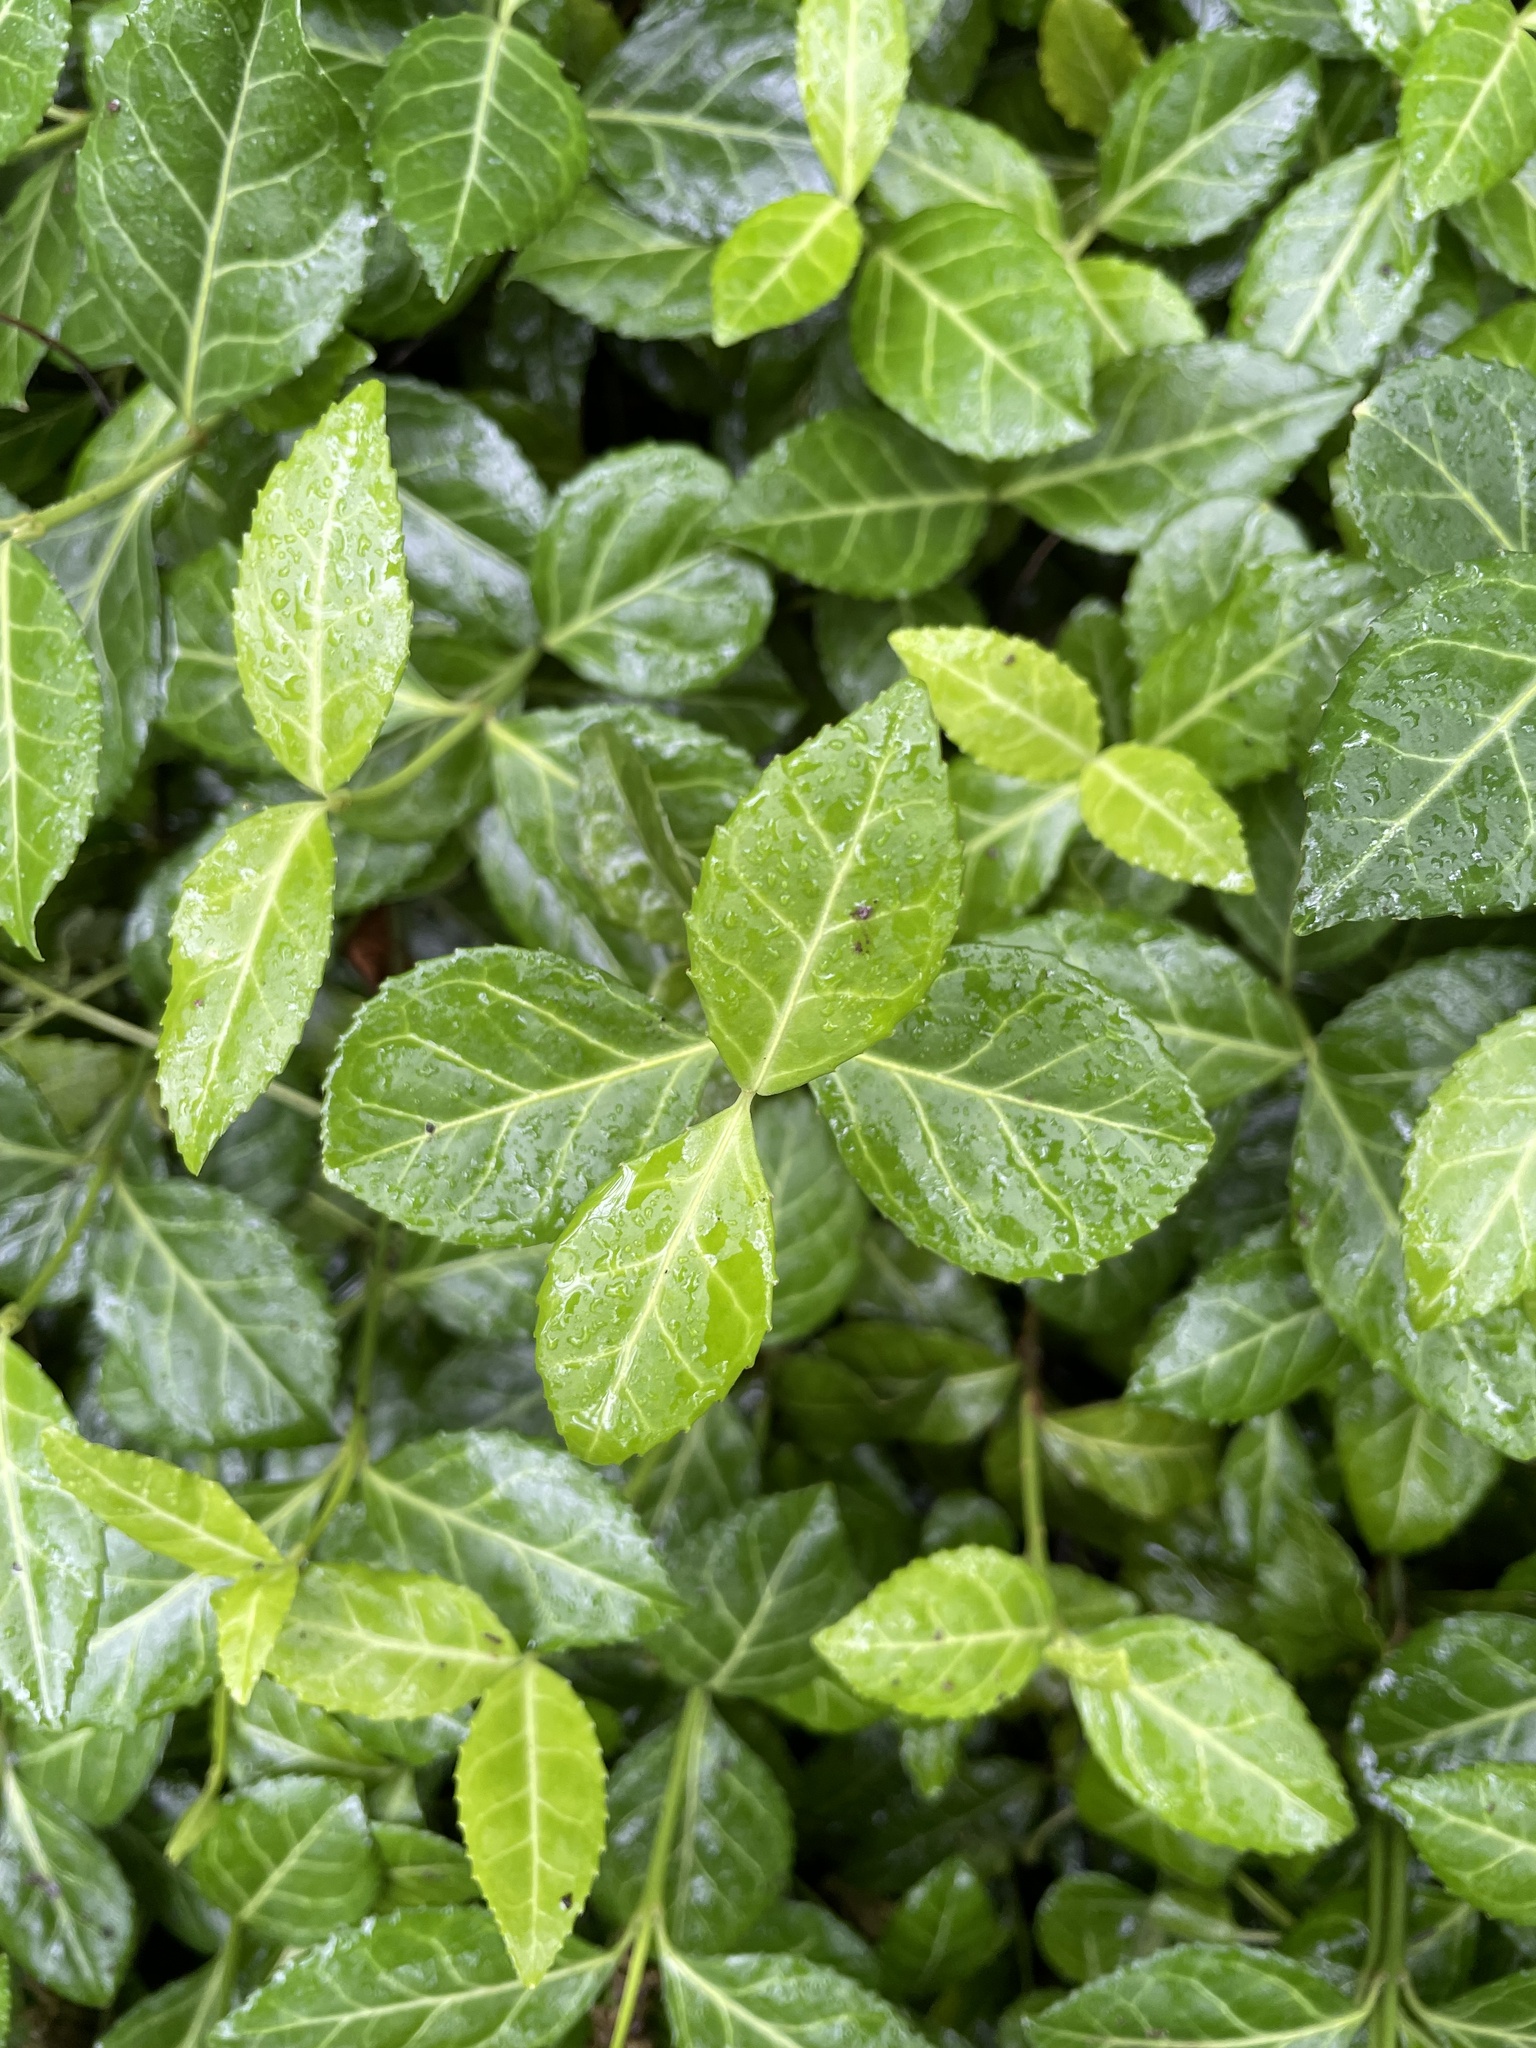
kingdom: Plantae
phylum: Tracheophyta
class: Magnoliopsida
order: Celastrales
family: Celastraceae
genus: Euonymus
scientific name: Euonymus fortunei
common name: Climbing euonymus
